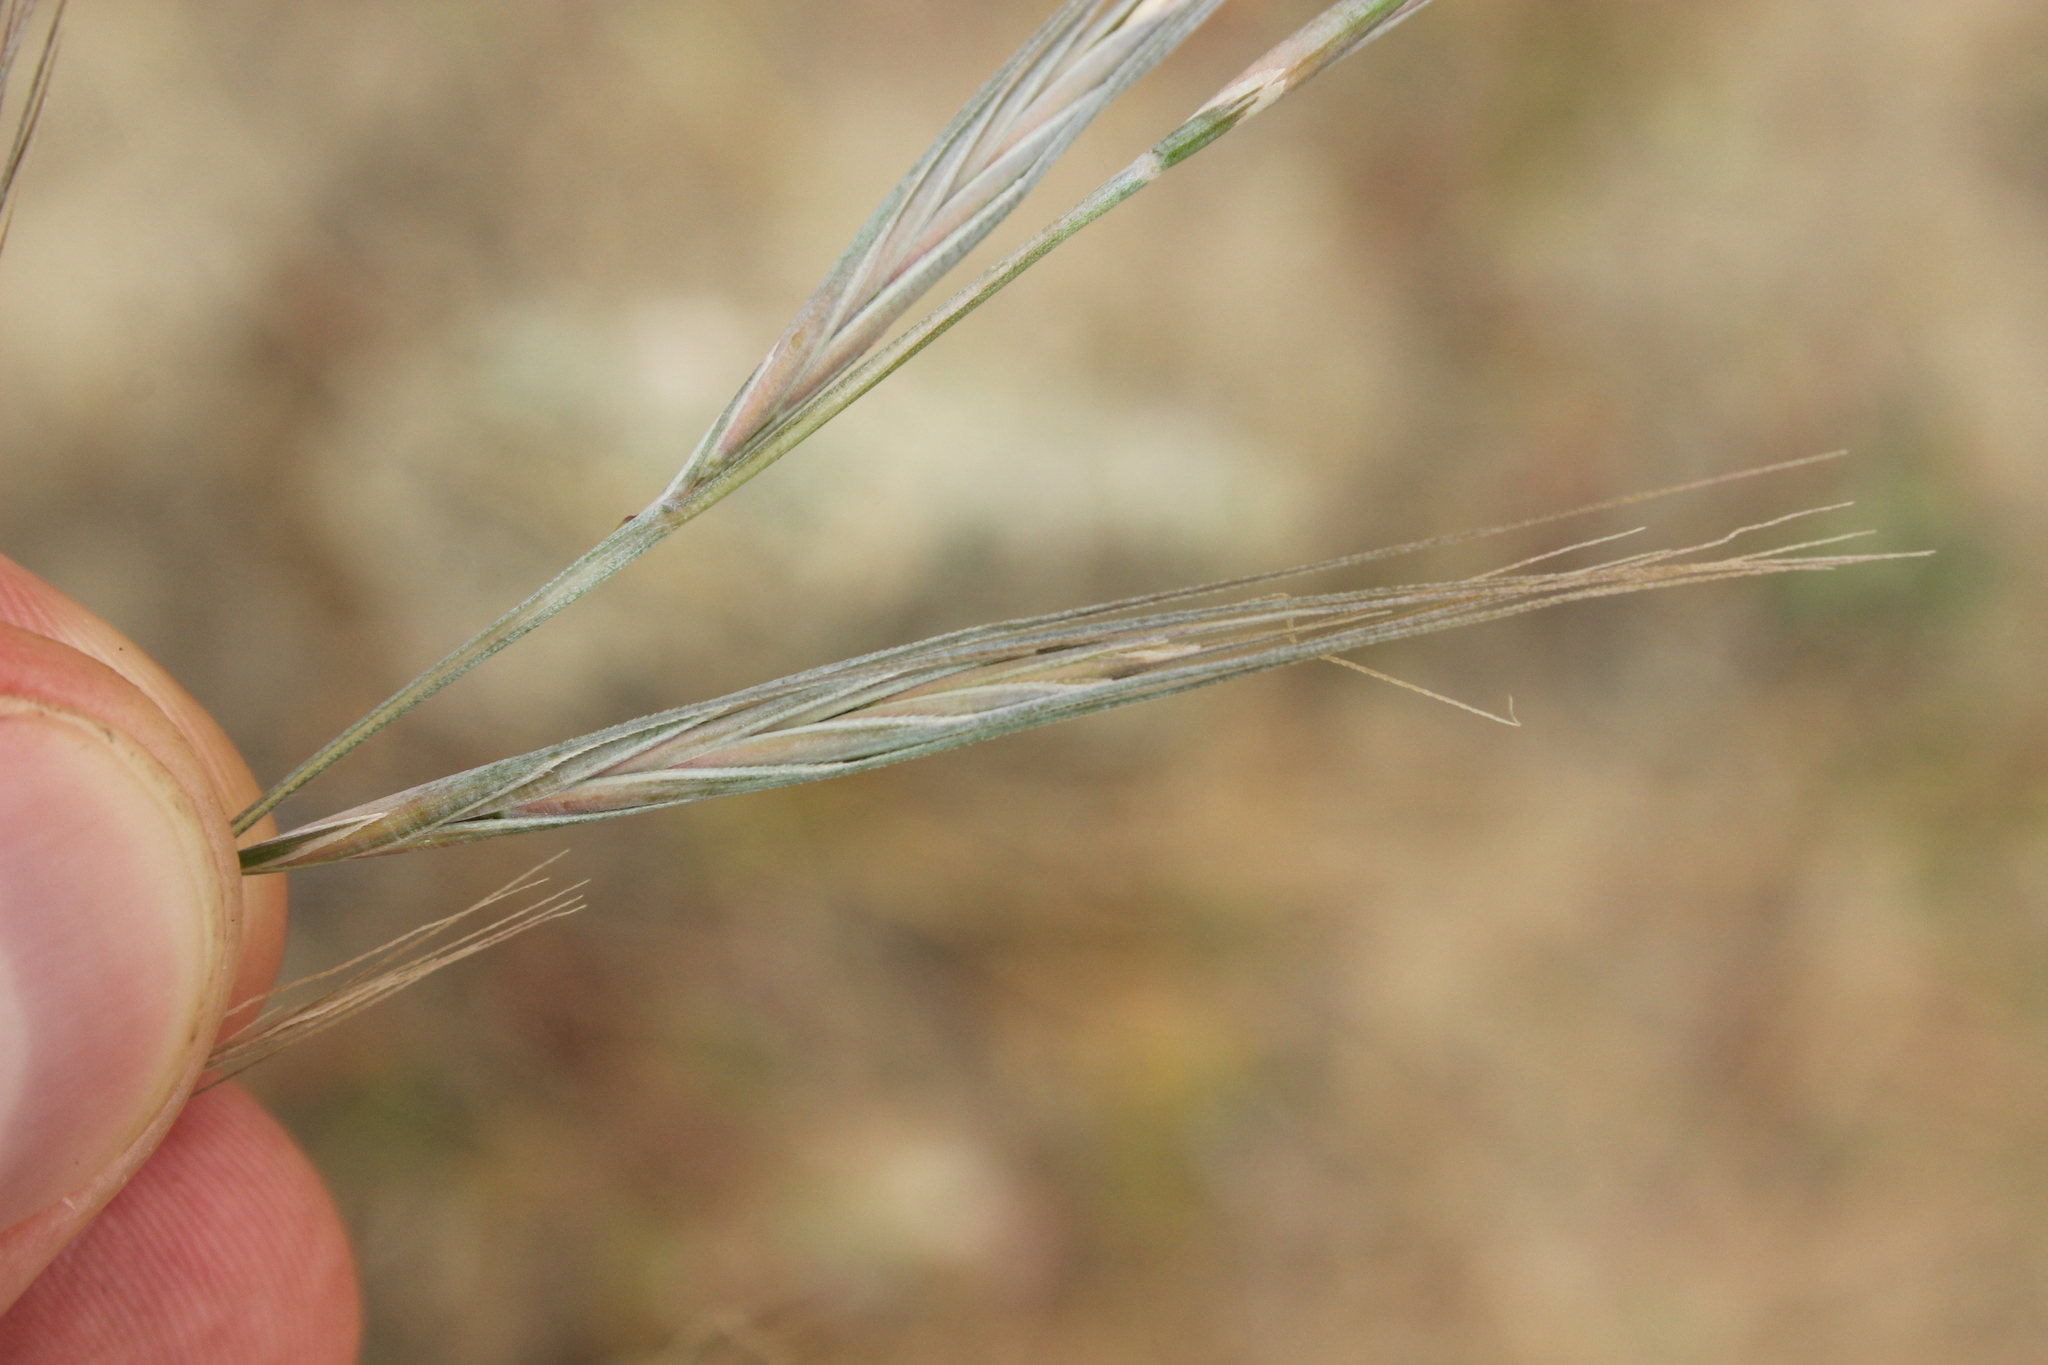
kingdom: Plantae
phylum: Tracheophyta
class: Liliopsida
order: Poales
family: Poaceae
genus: Anthosachne
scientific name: Anthosachne aprica
